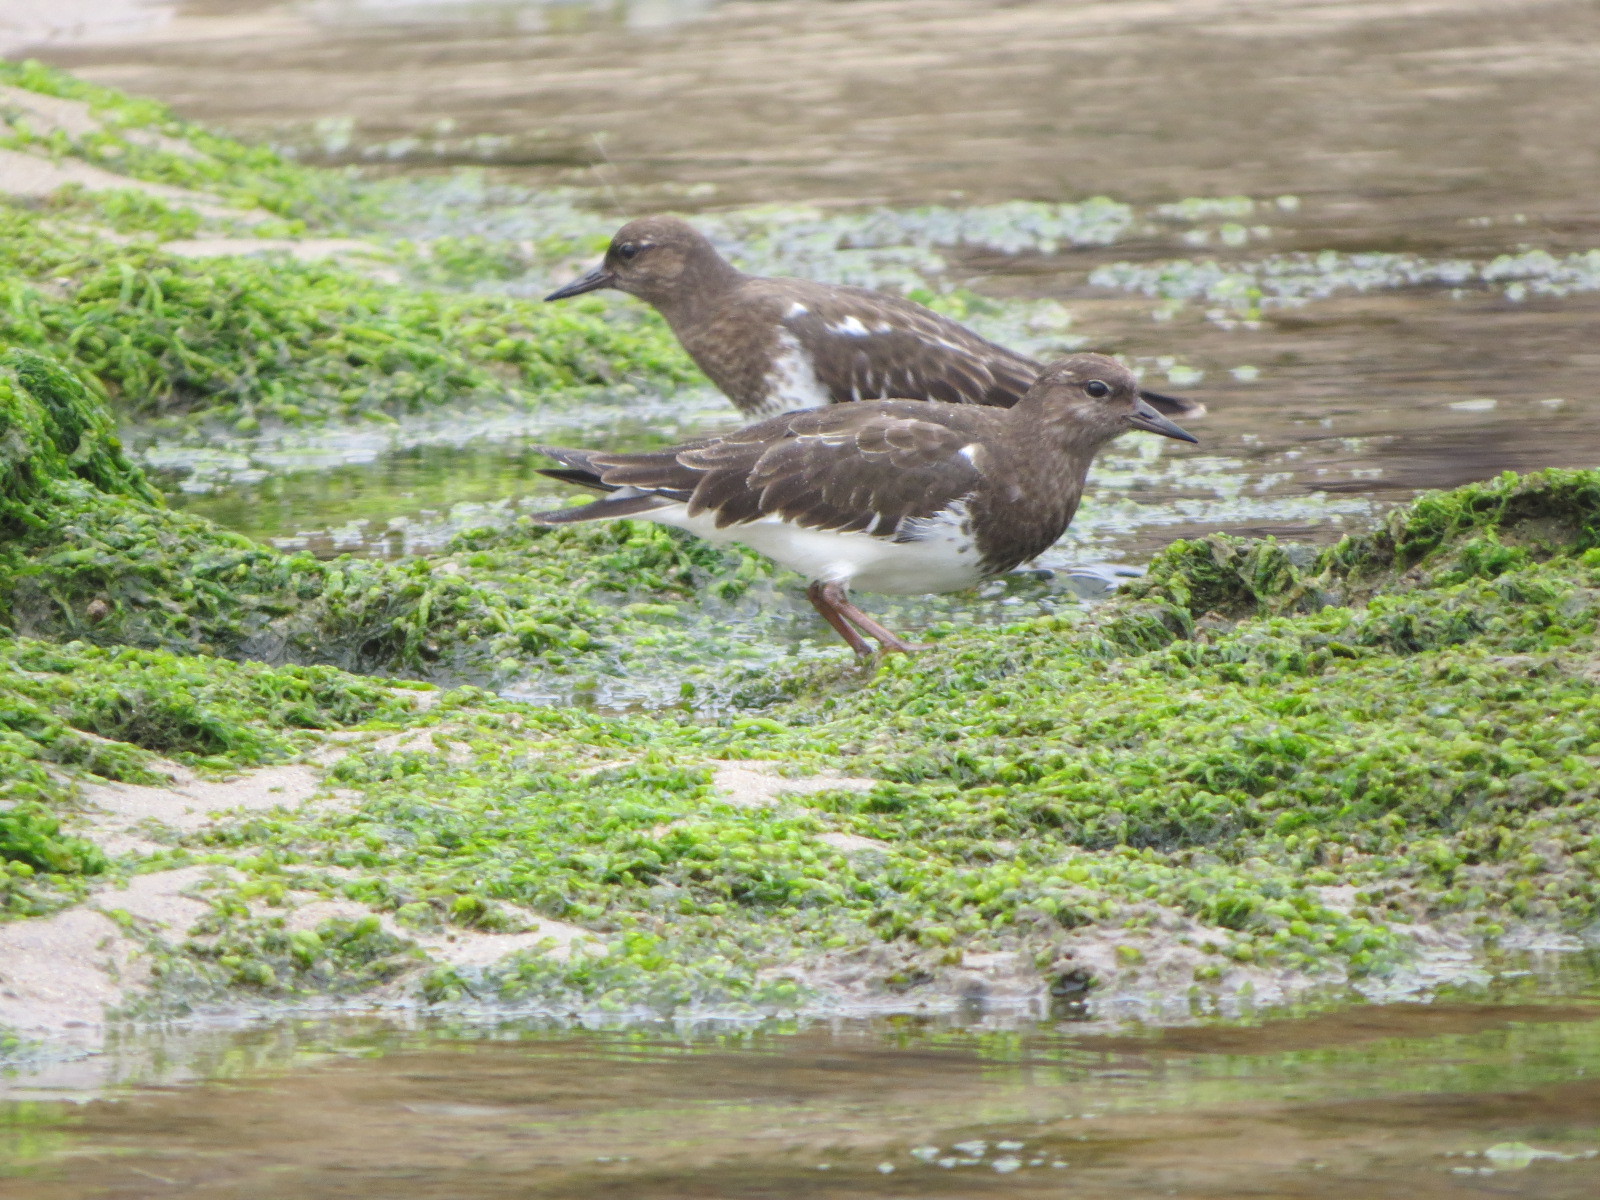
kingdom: Animalia
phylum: Chordata
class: Aves
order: Charadriiformes
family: Scolopacidae
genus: Arenaria
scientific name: Arenaria melanocephala
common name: Black turnstone
